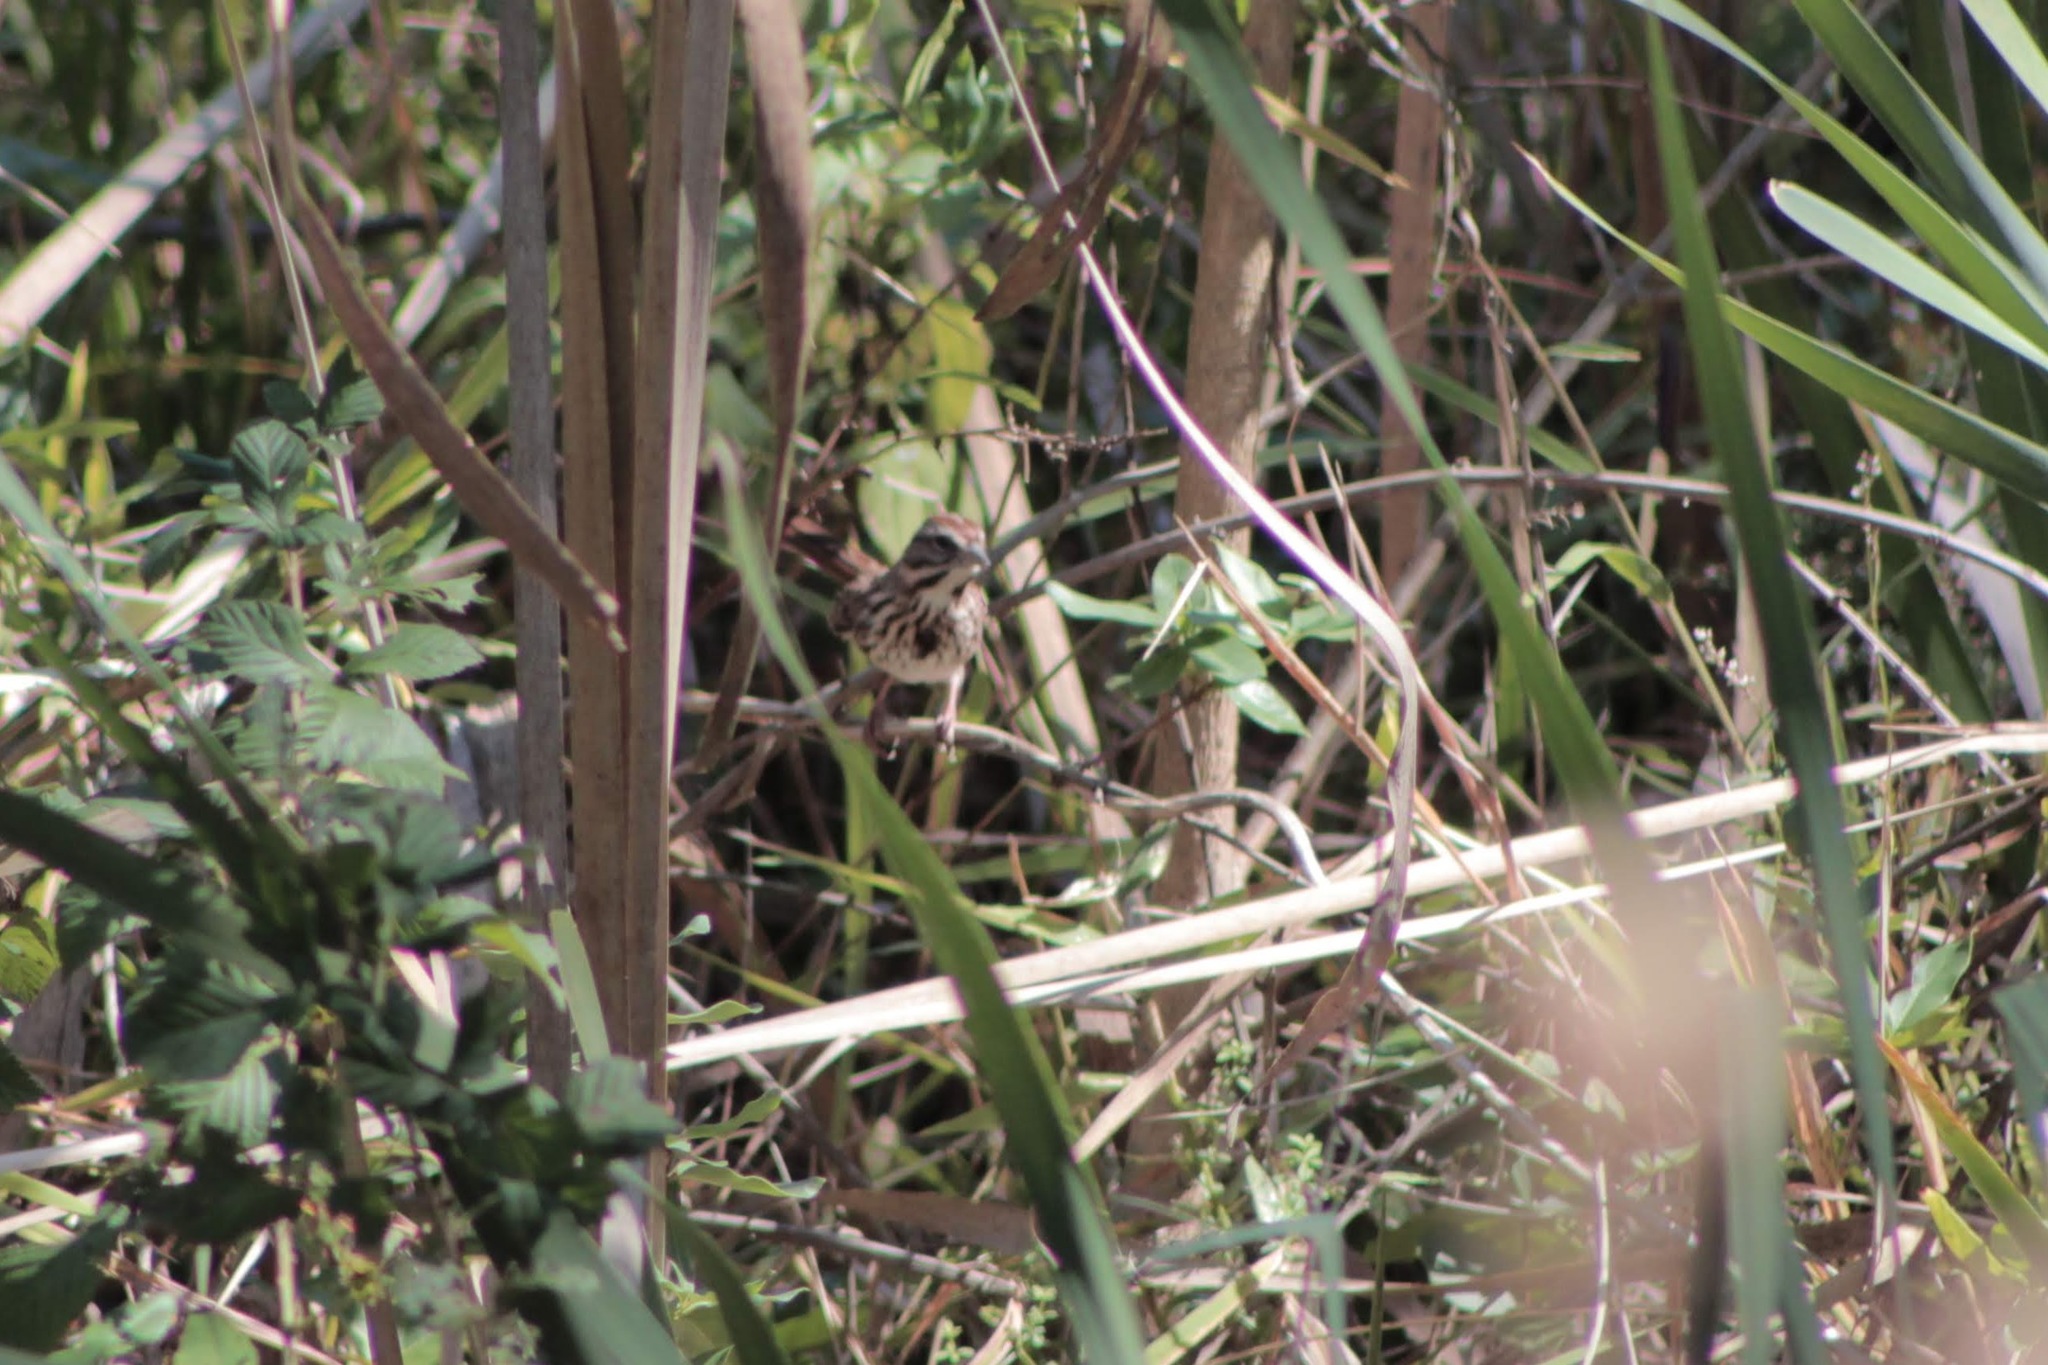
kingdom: Animalia
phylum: Chordata
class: Aves
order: Passeriformes
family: Passerellidae
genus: Melospiza
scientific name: Melospiza melodia
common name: Song sparrow
